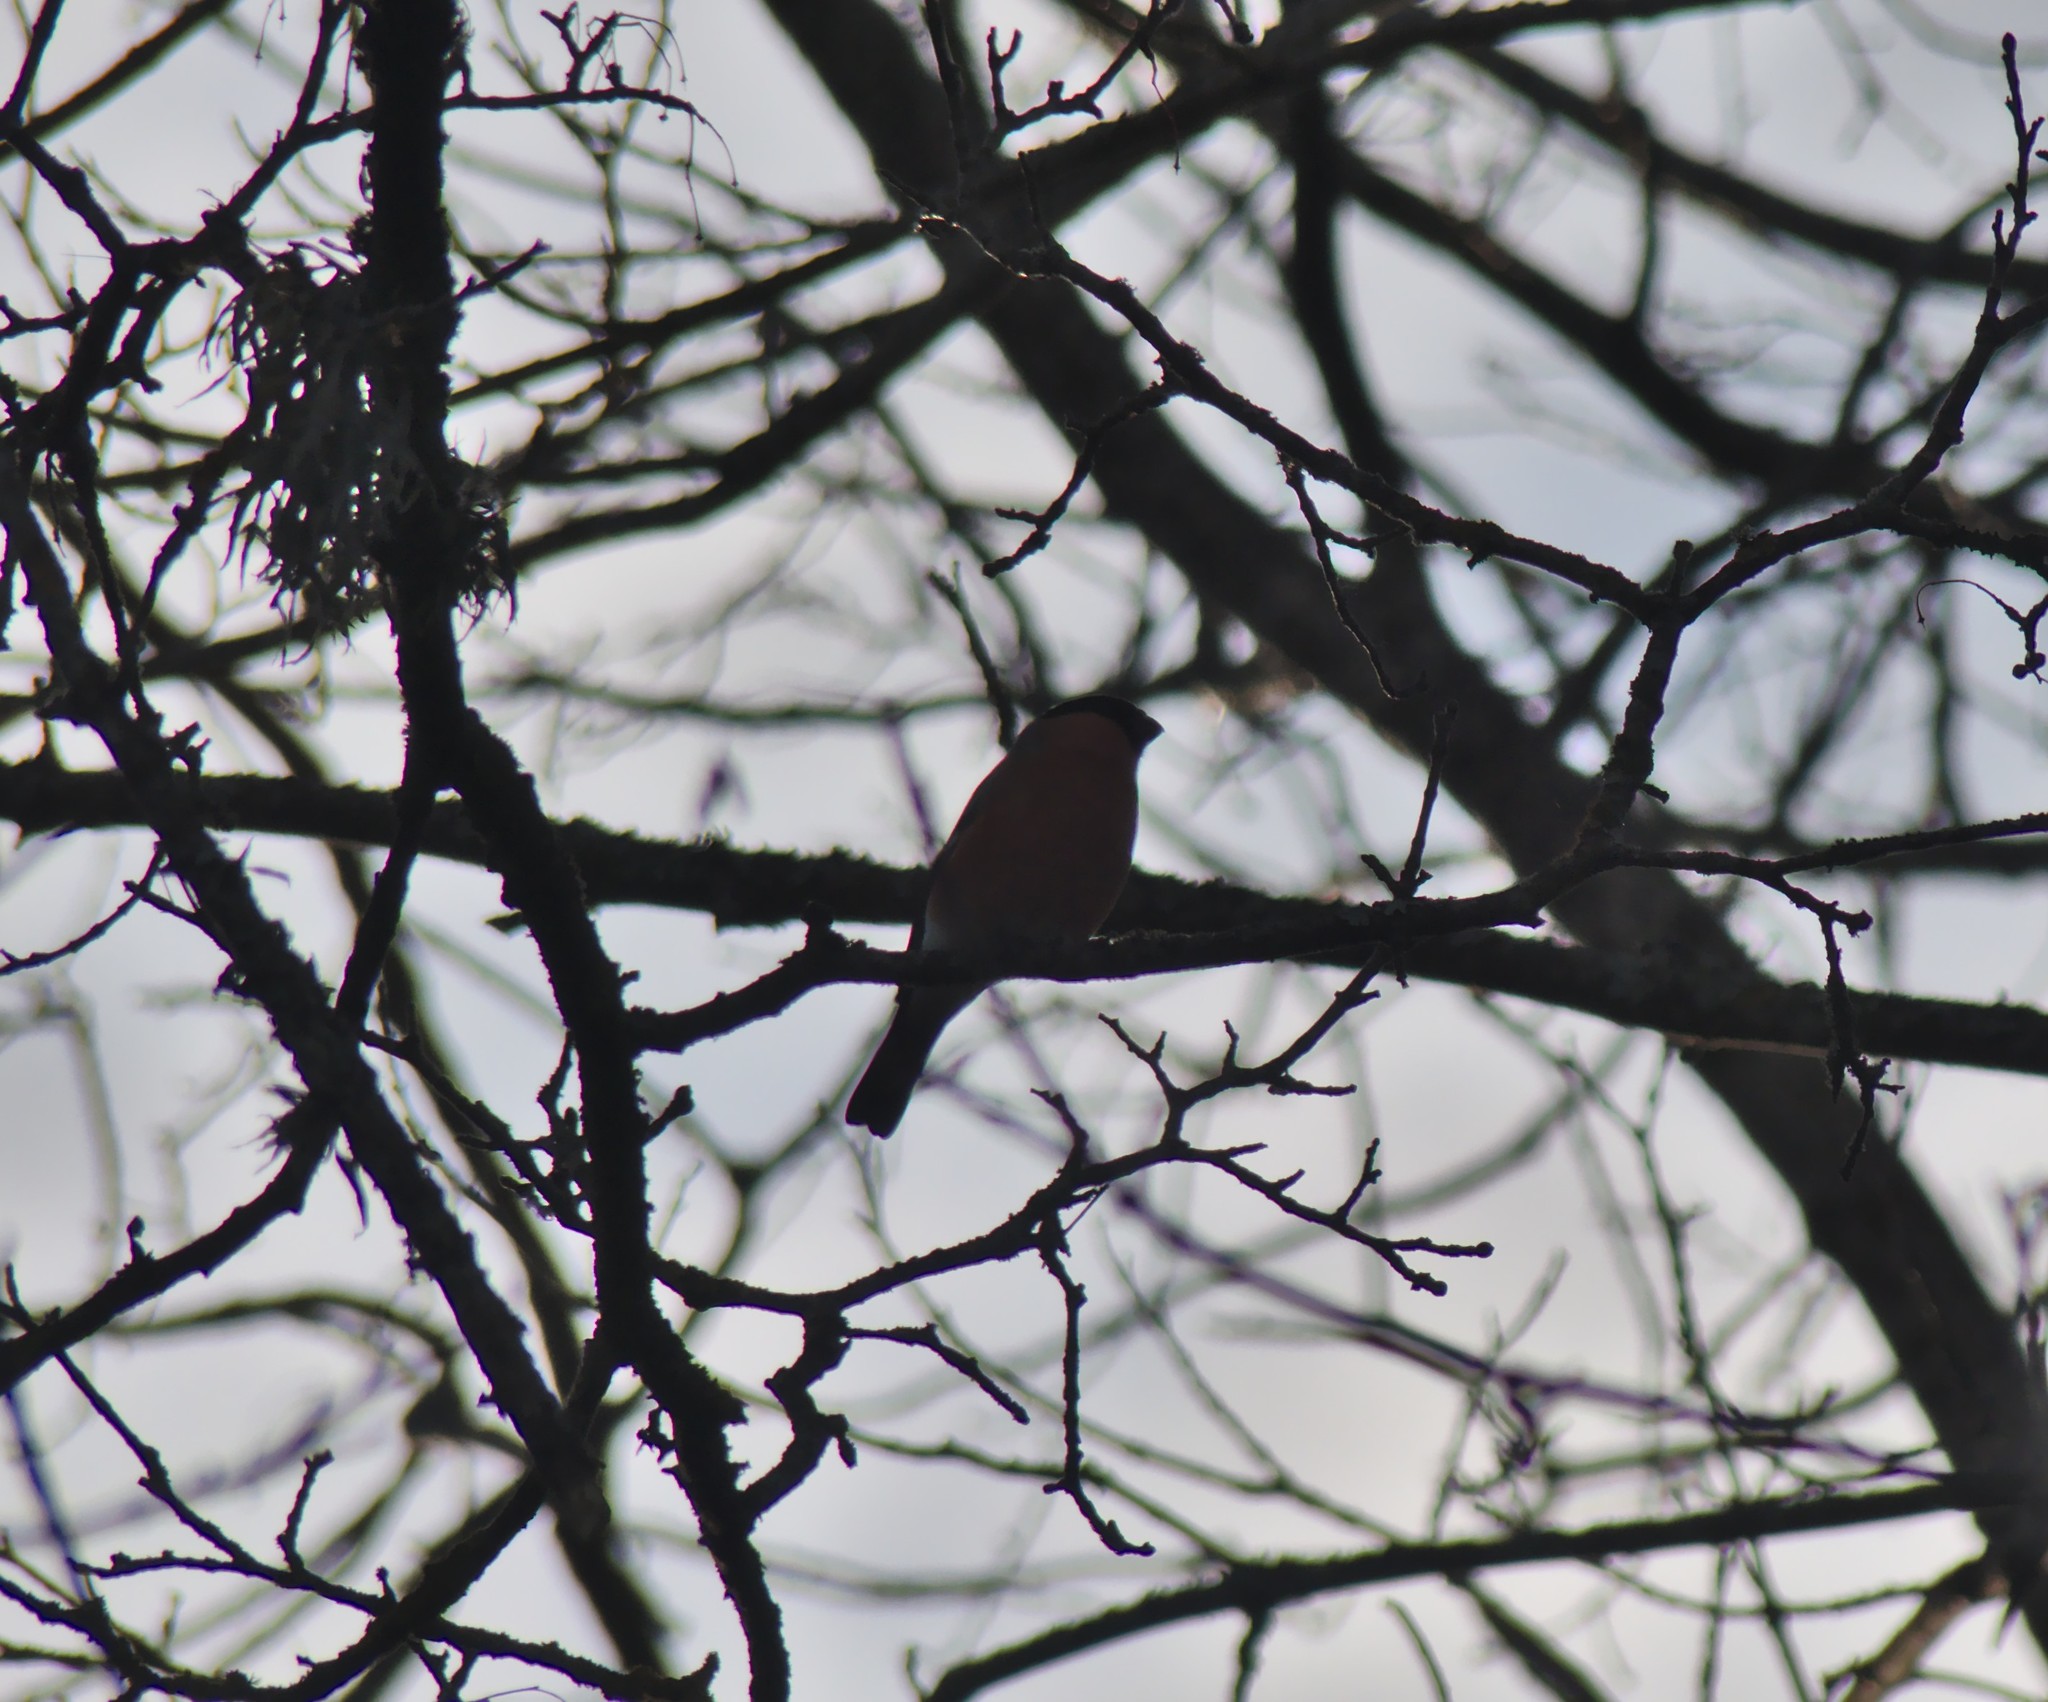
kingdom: Animalia
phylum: Chordata
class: Aves
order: Passeriformes
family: Fringillidae
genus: Pyrrhula
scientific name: Pyrrhula pyrrhula
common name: Eurasian bullfinch
